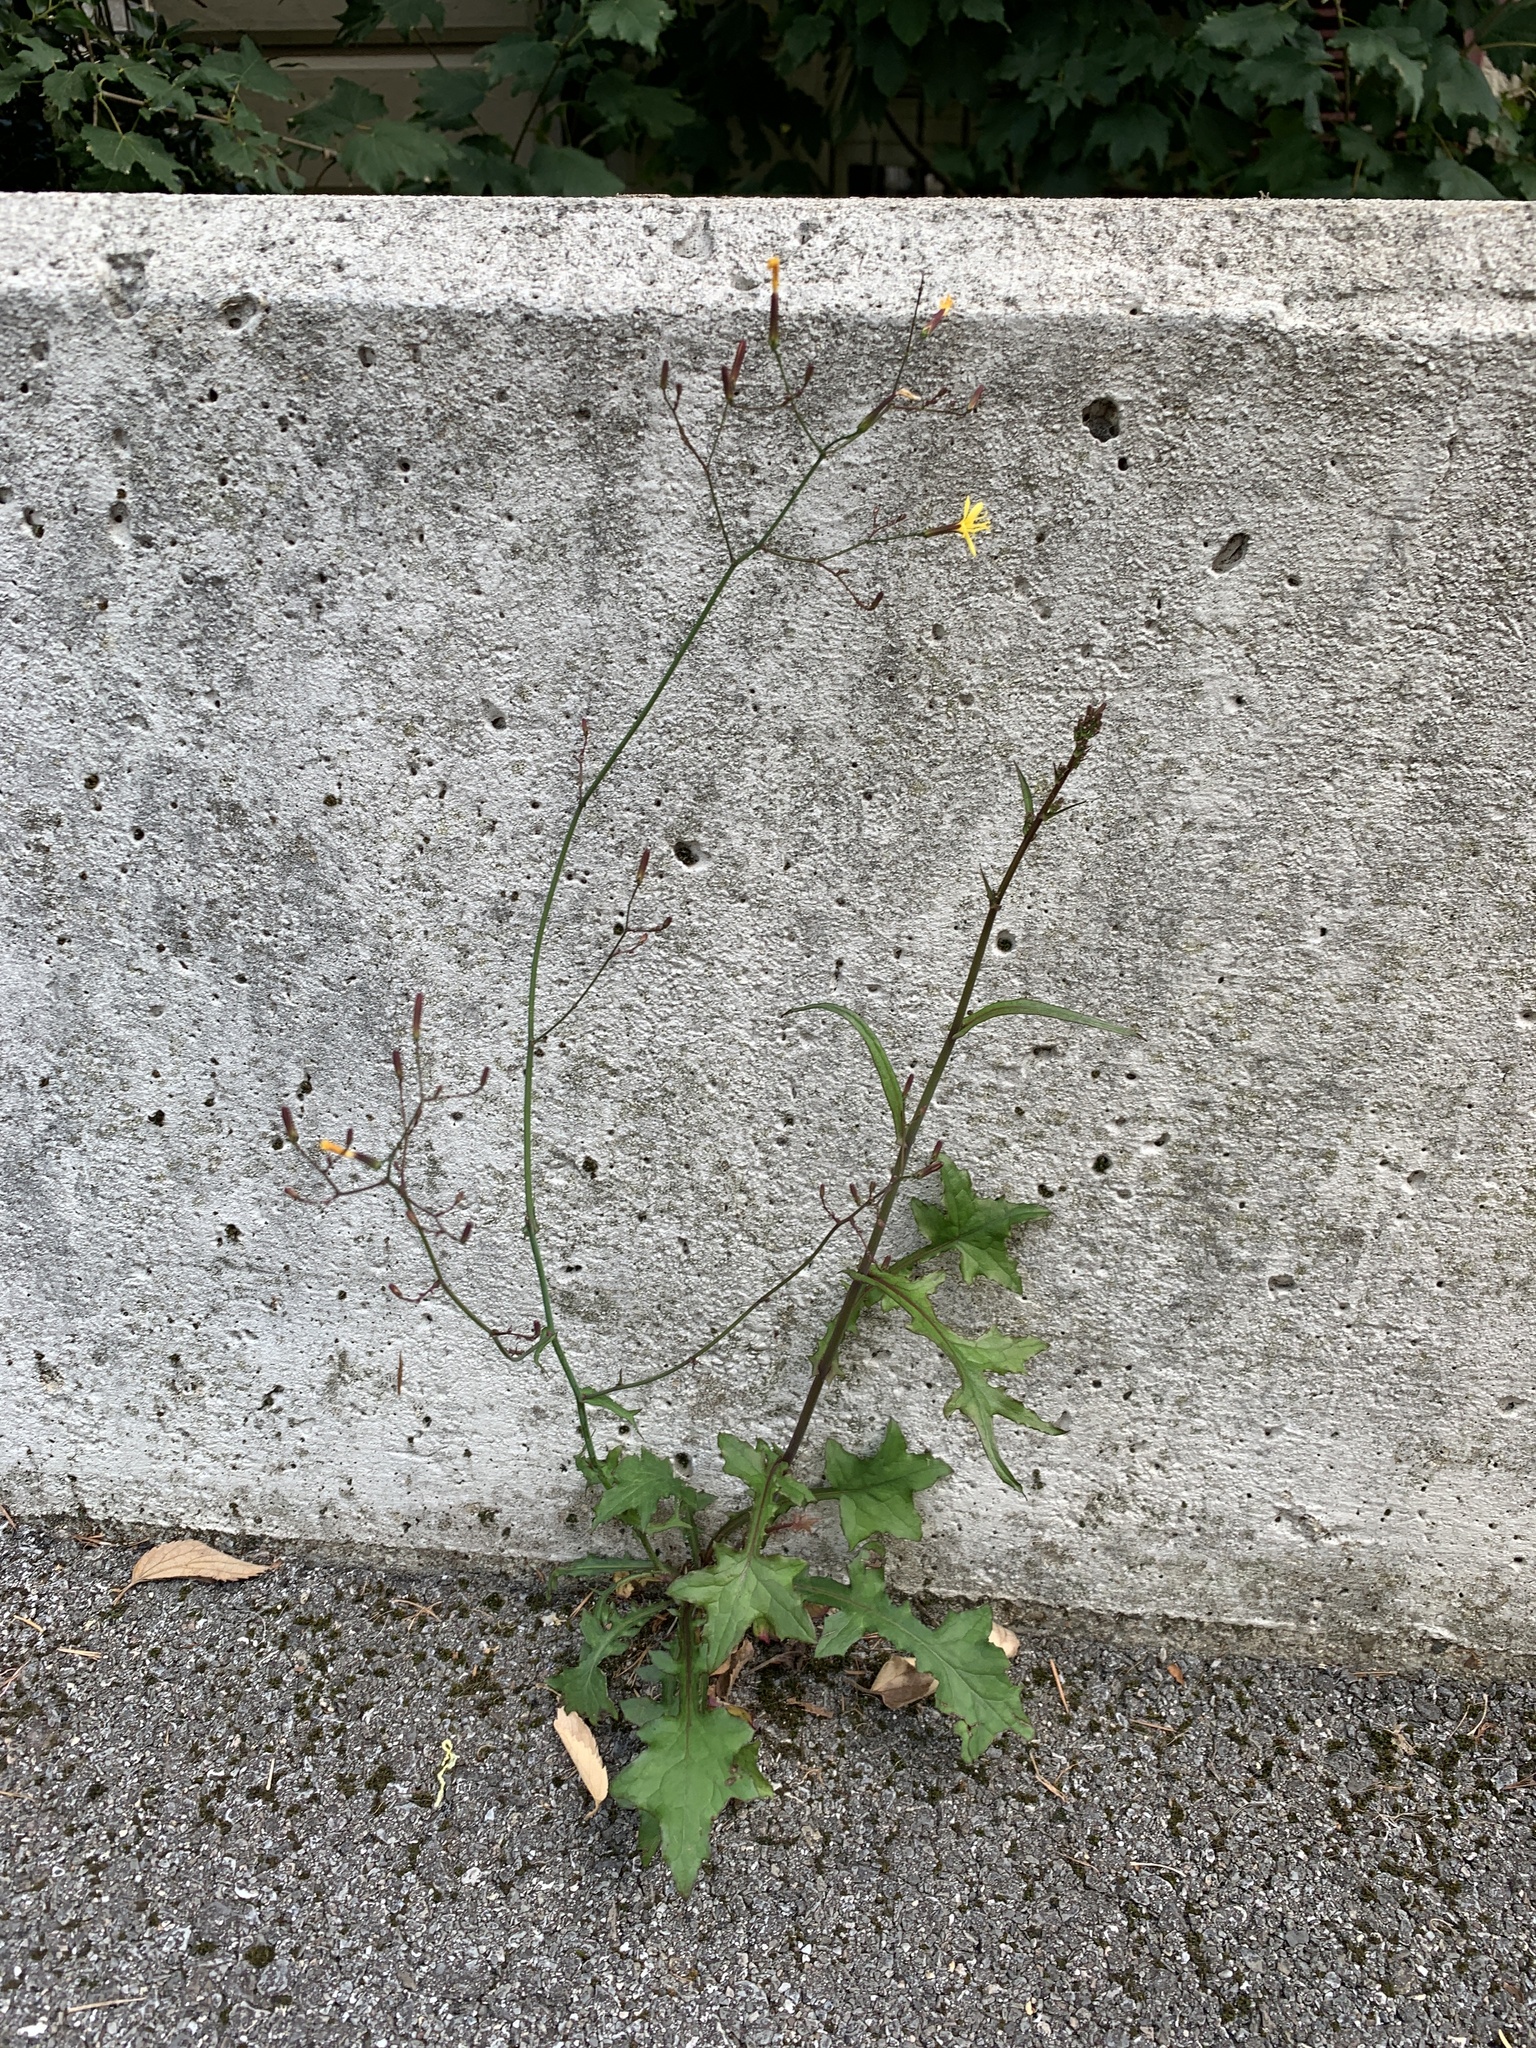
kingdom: Plantae
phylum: Tracheophyta
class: Magnoliopsida
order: Asterales
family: Asteraceae
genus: Mycelis
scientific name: Mycelis muralis
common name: Wall lettuce
